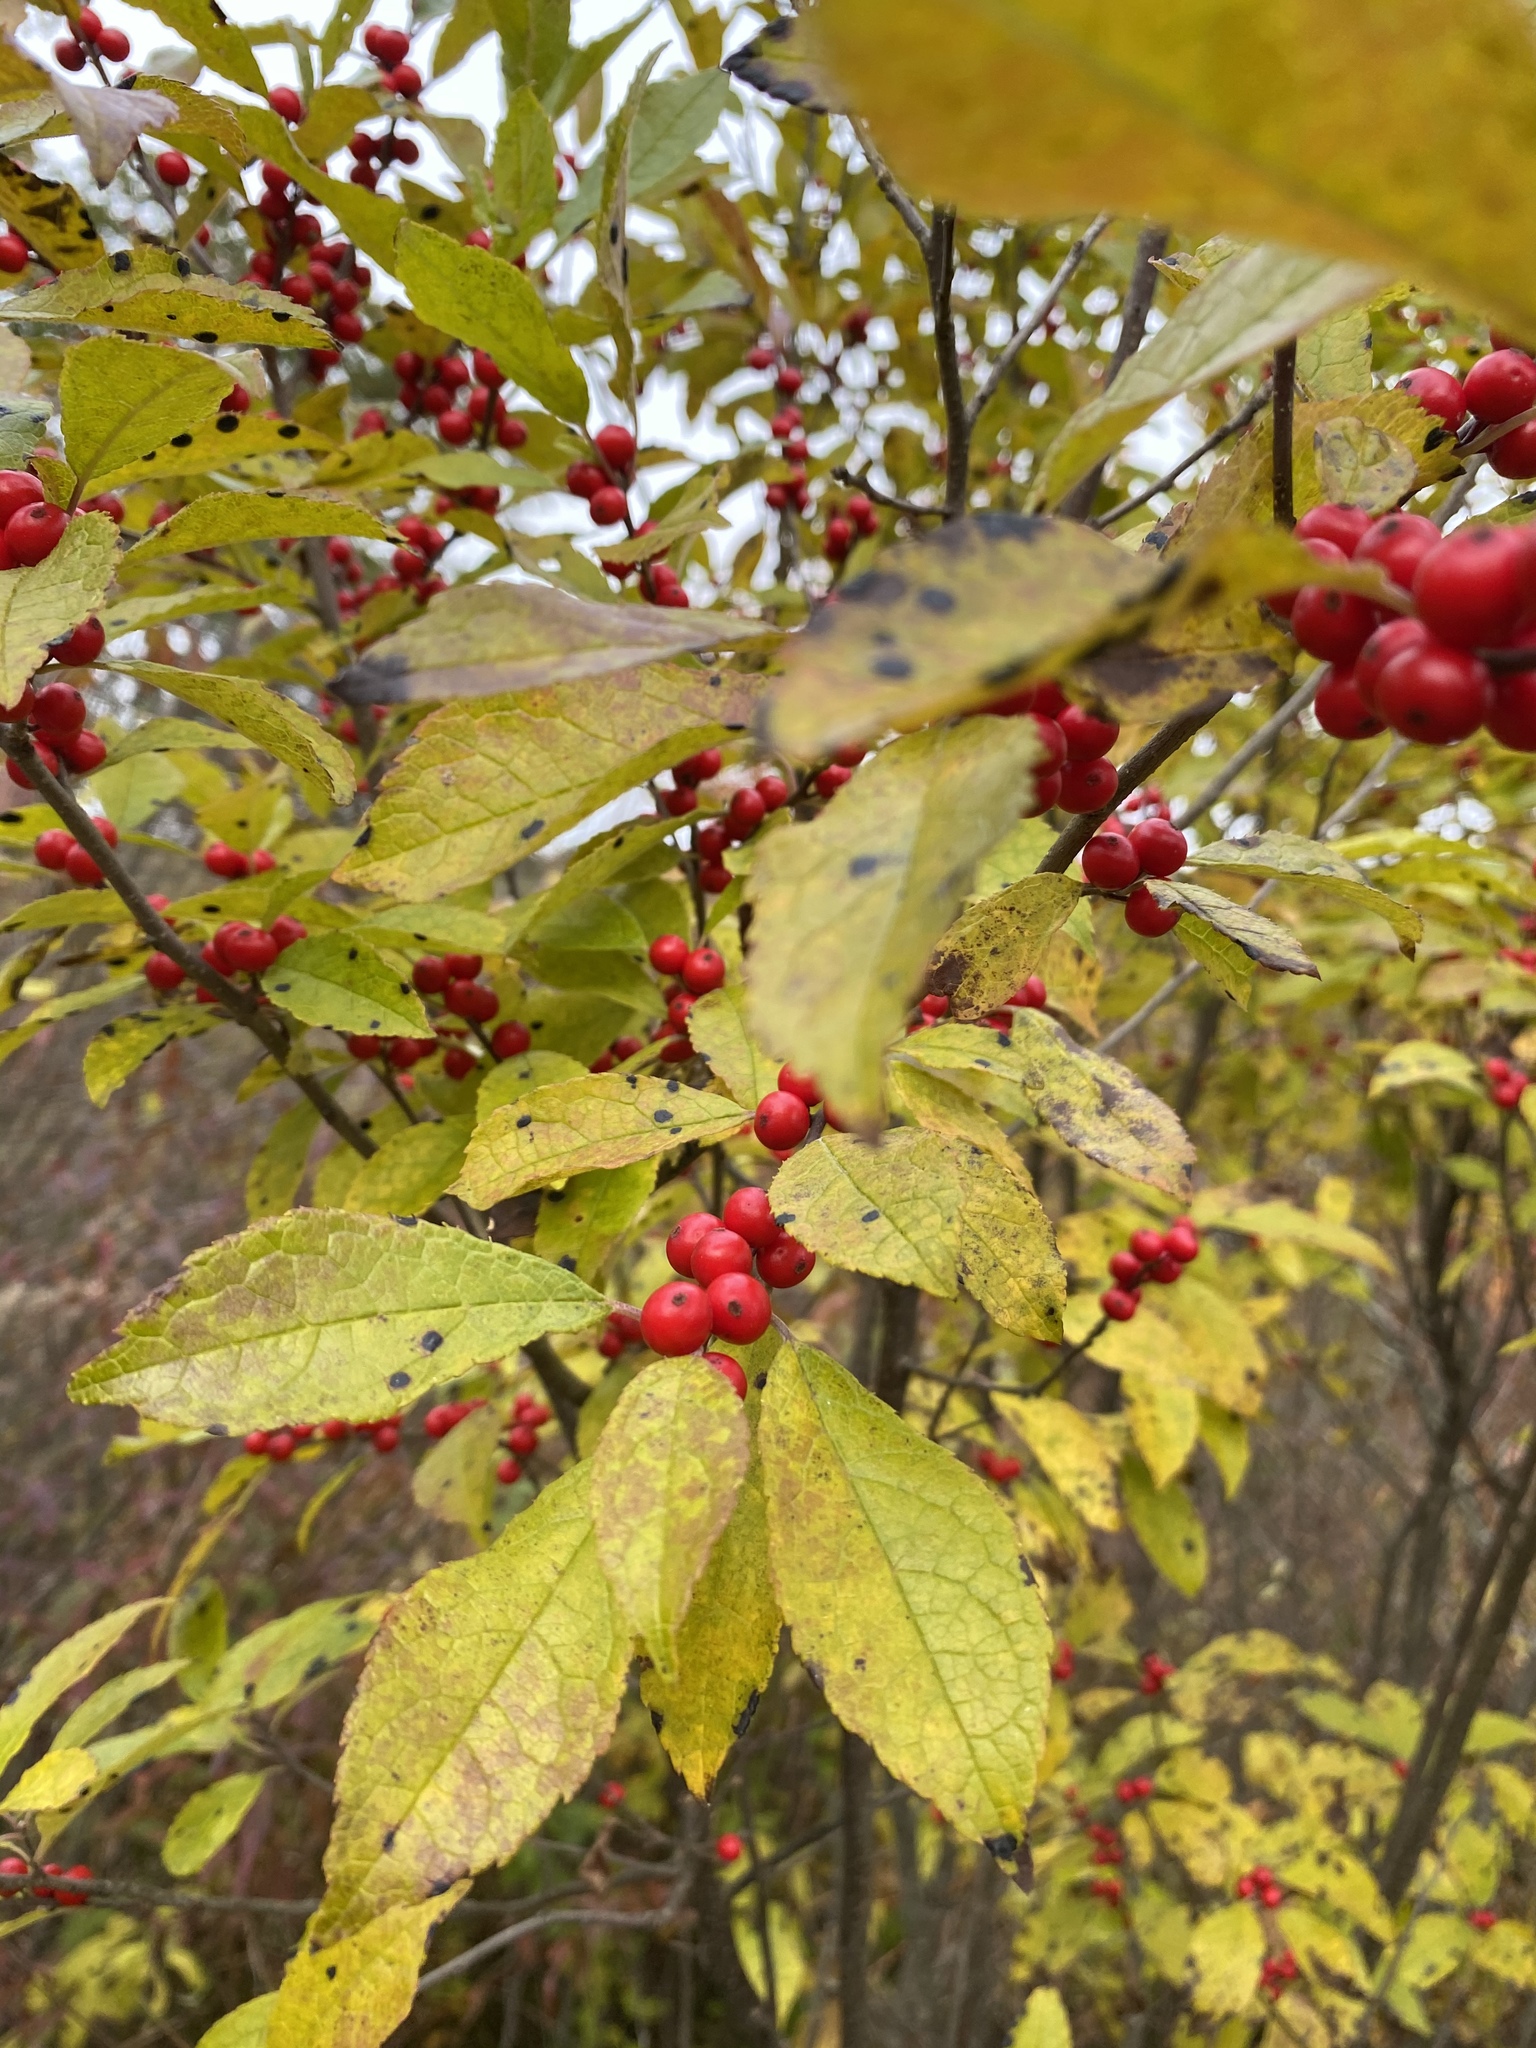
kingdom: Plantae
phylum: Tracheophyta
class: Magnoliopsida
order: Aquifoliales
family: Aquifoliaceae
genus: Ilex
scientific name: Ilex verticillata
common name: Virginia winterberry
